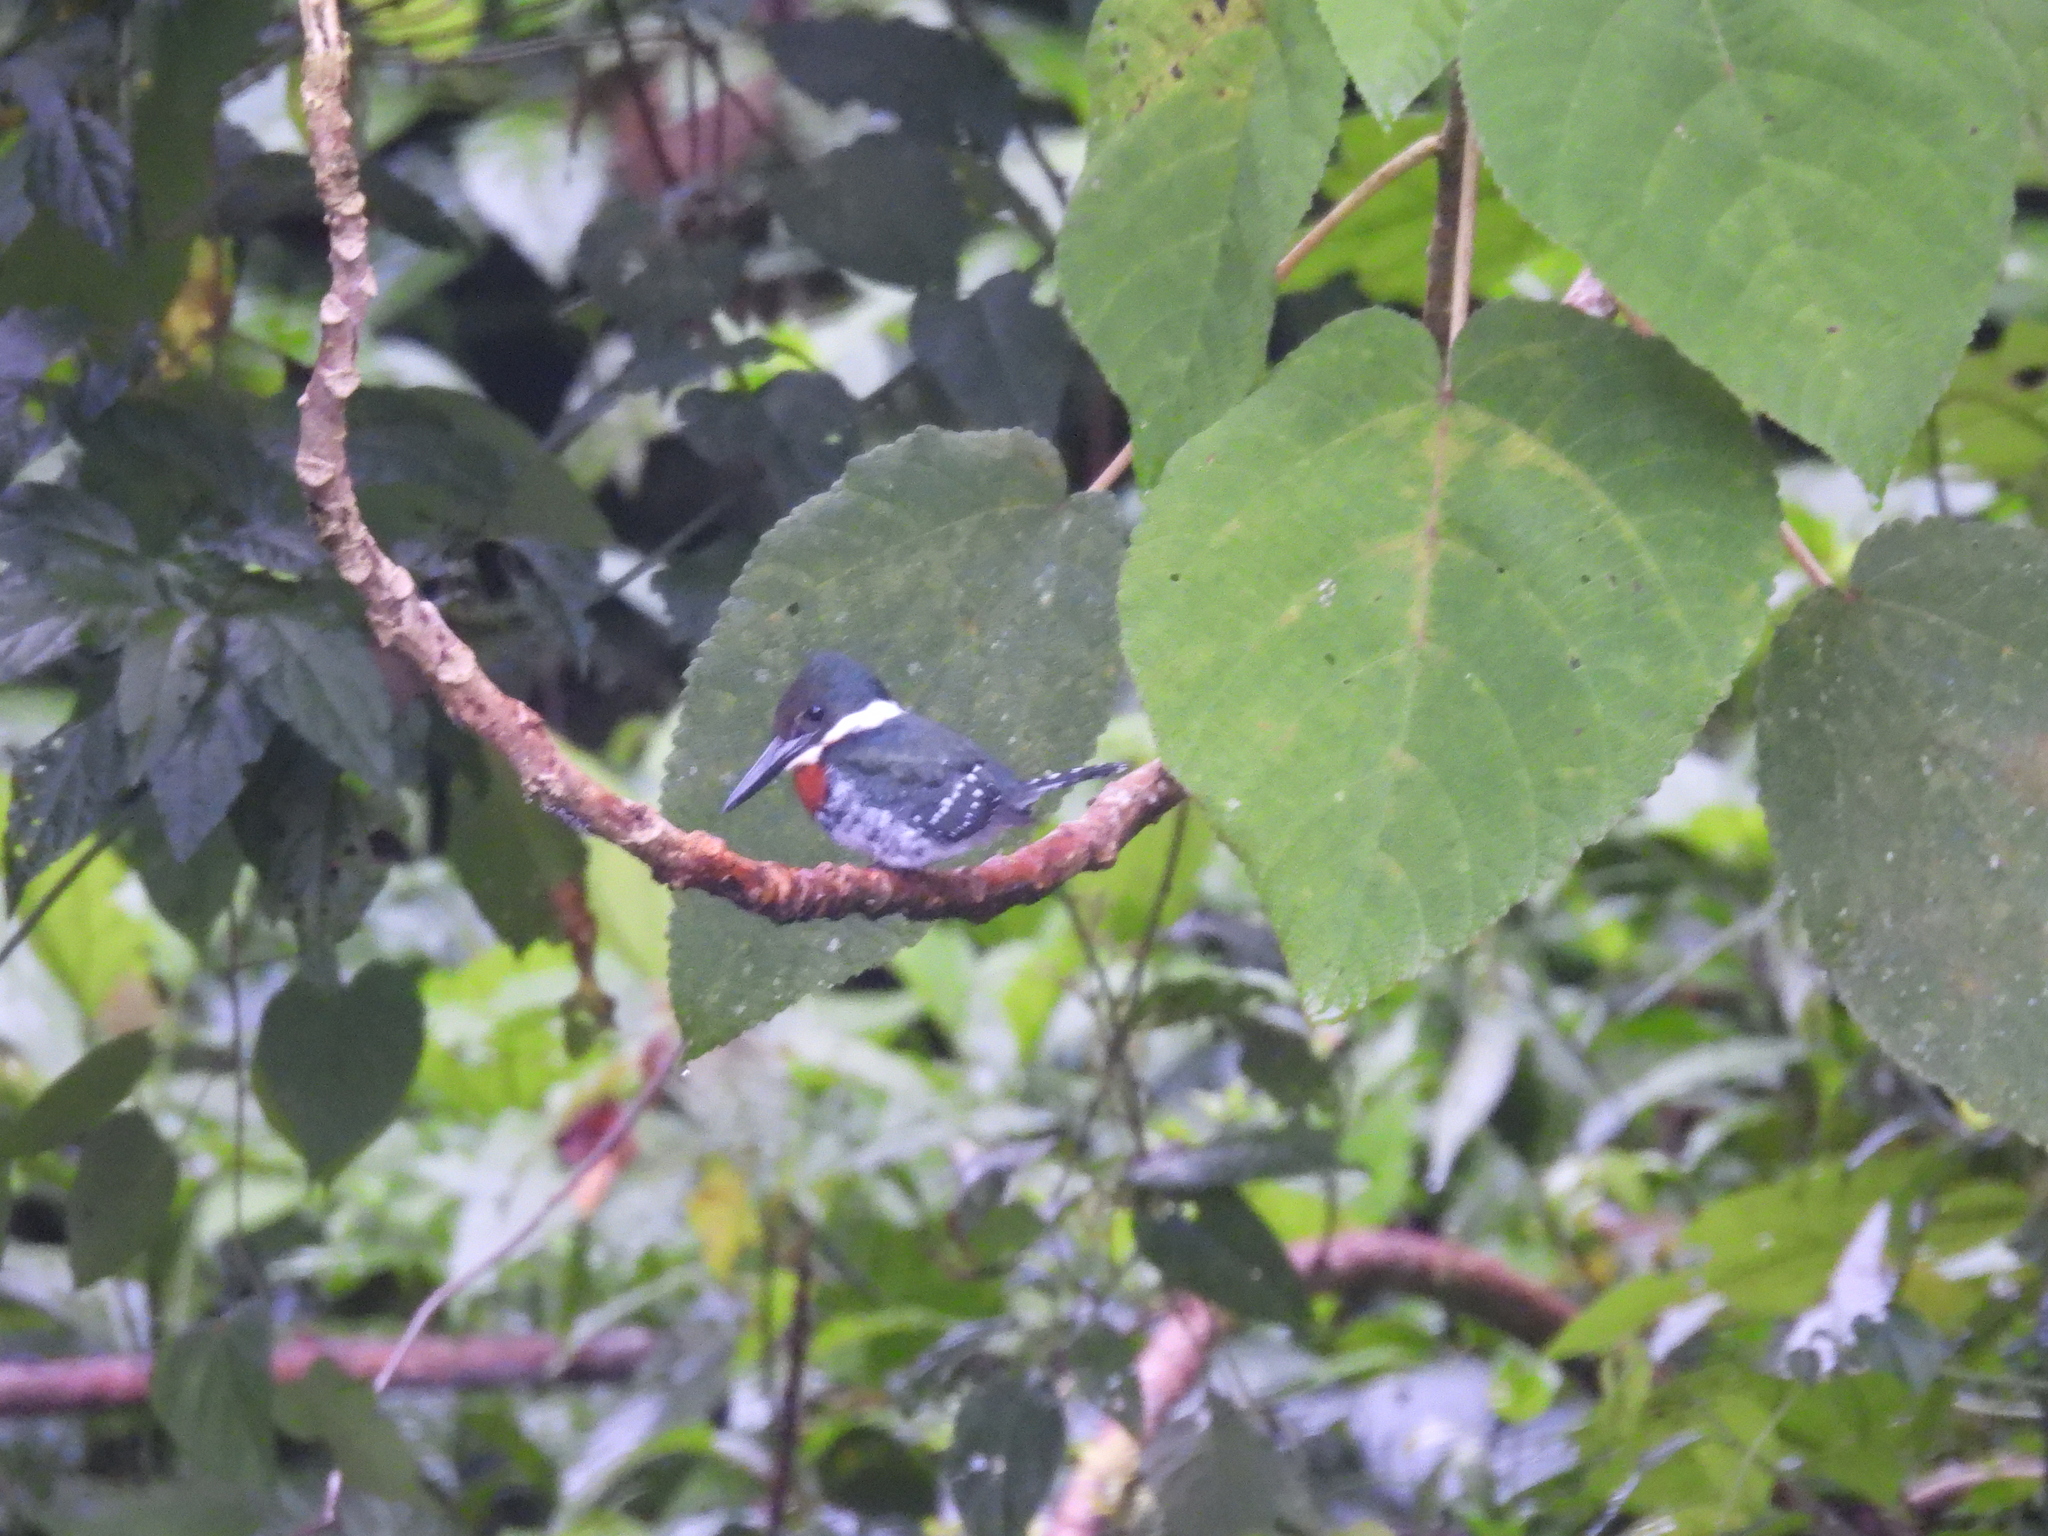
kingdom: Animalia
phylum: Chordata
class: Aves
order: Coraciiformes
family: Alcedinidae
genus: Chloroceryle
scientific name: Chloroceryle americana
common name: Green kingfisher
